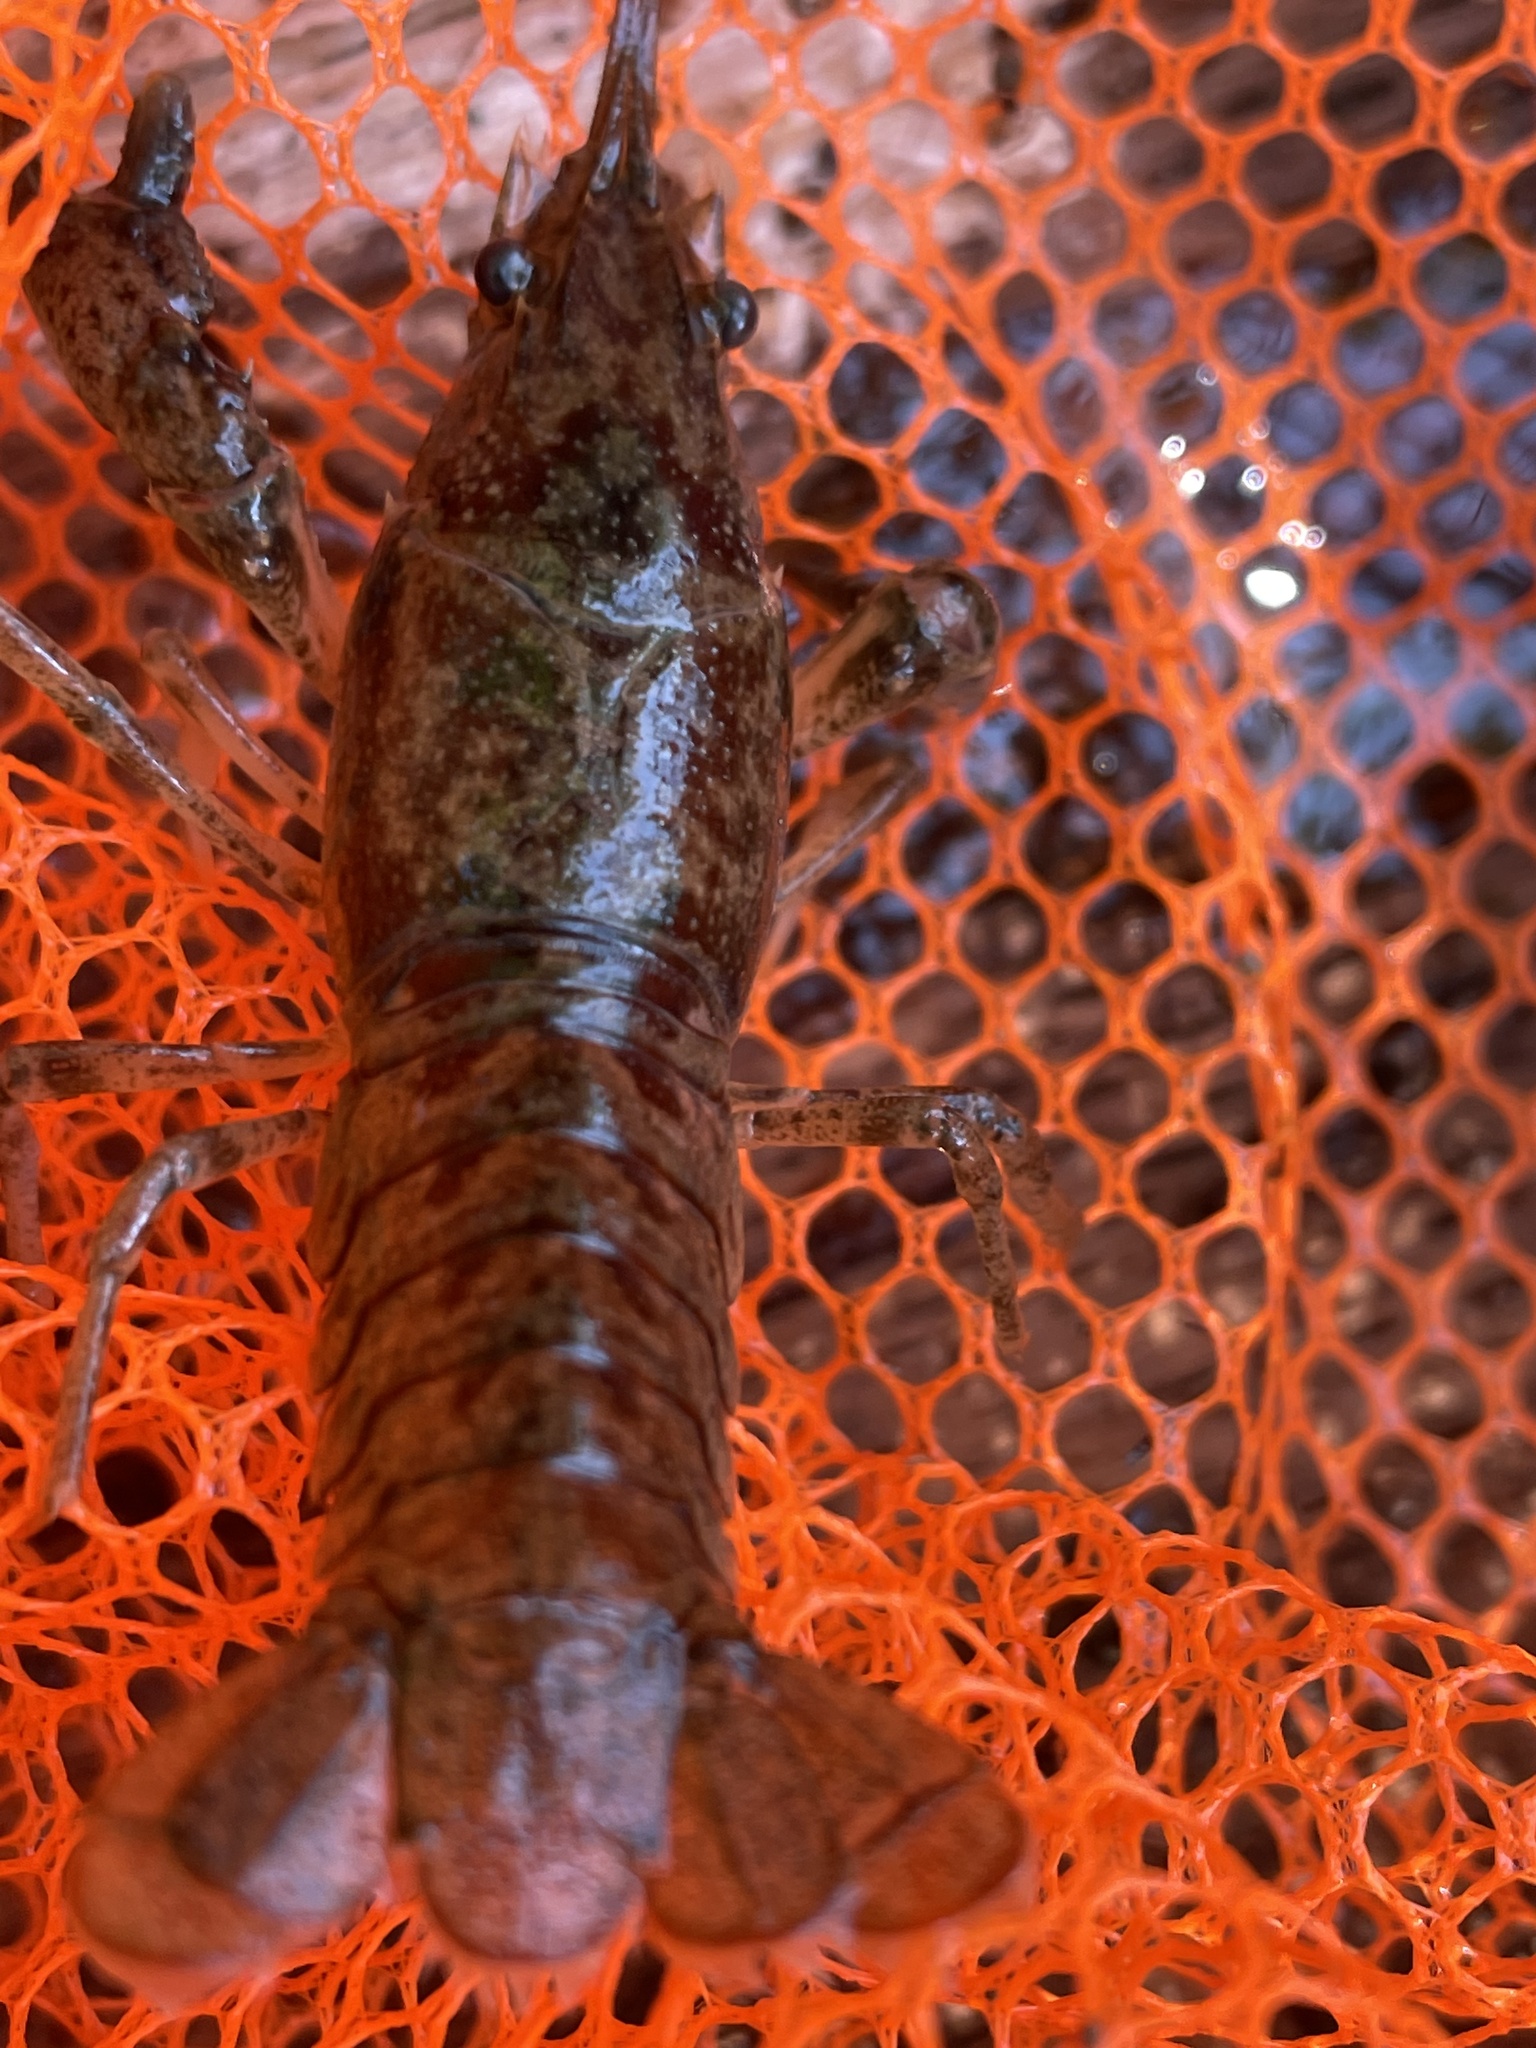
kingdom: Animalia
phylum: Arthropoda
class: Malacostraca
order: Decapoda
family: Cambaridae
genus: Faxonius
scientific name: Faxonius virilis
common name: Virile crayfish
